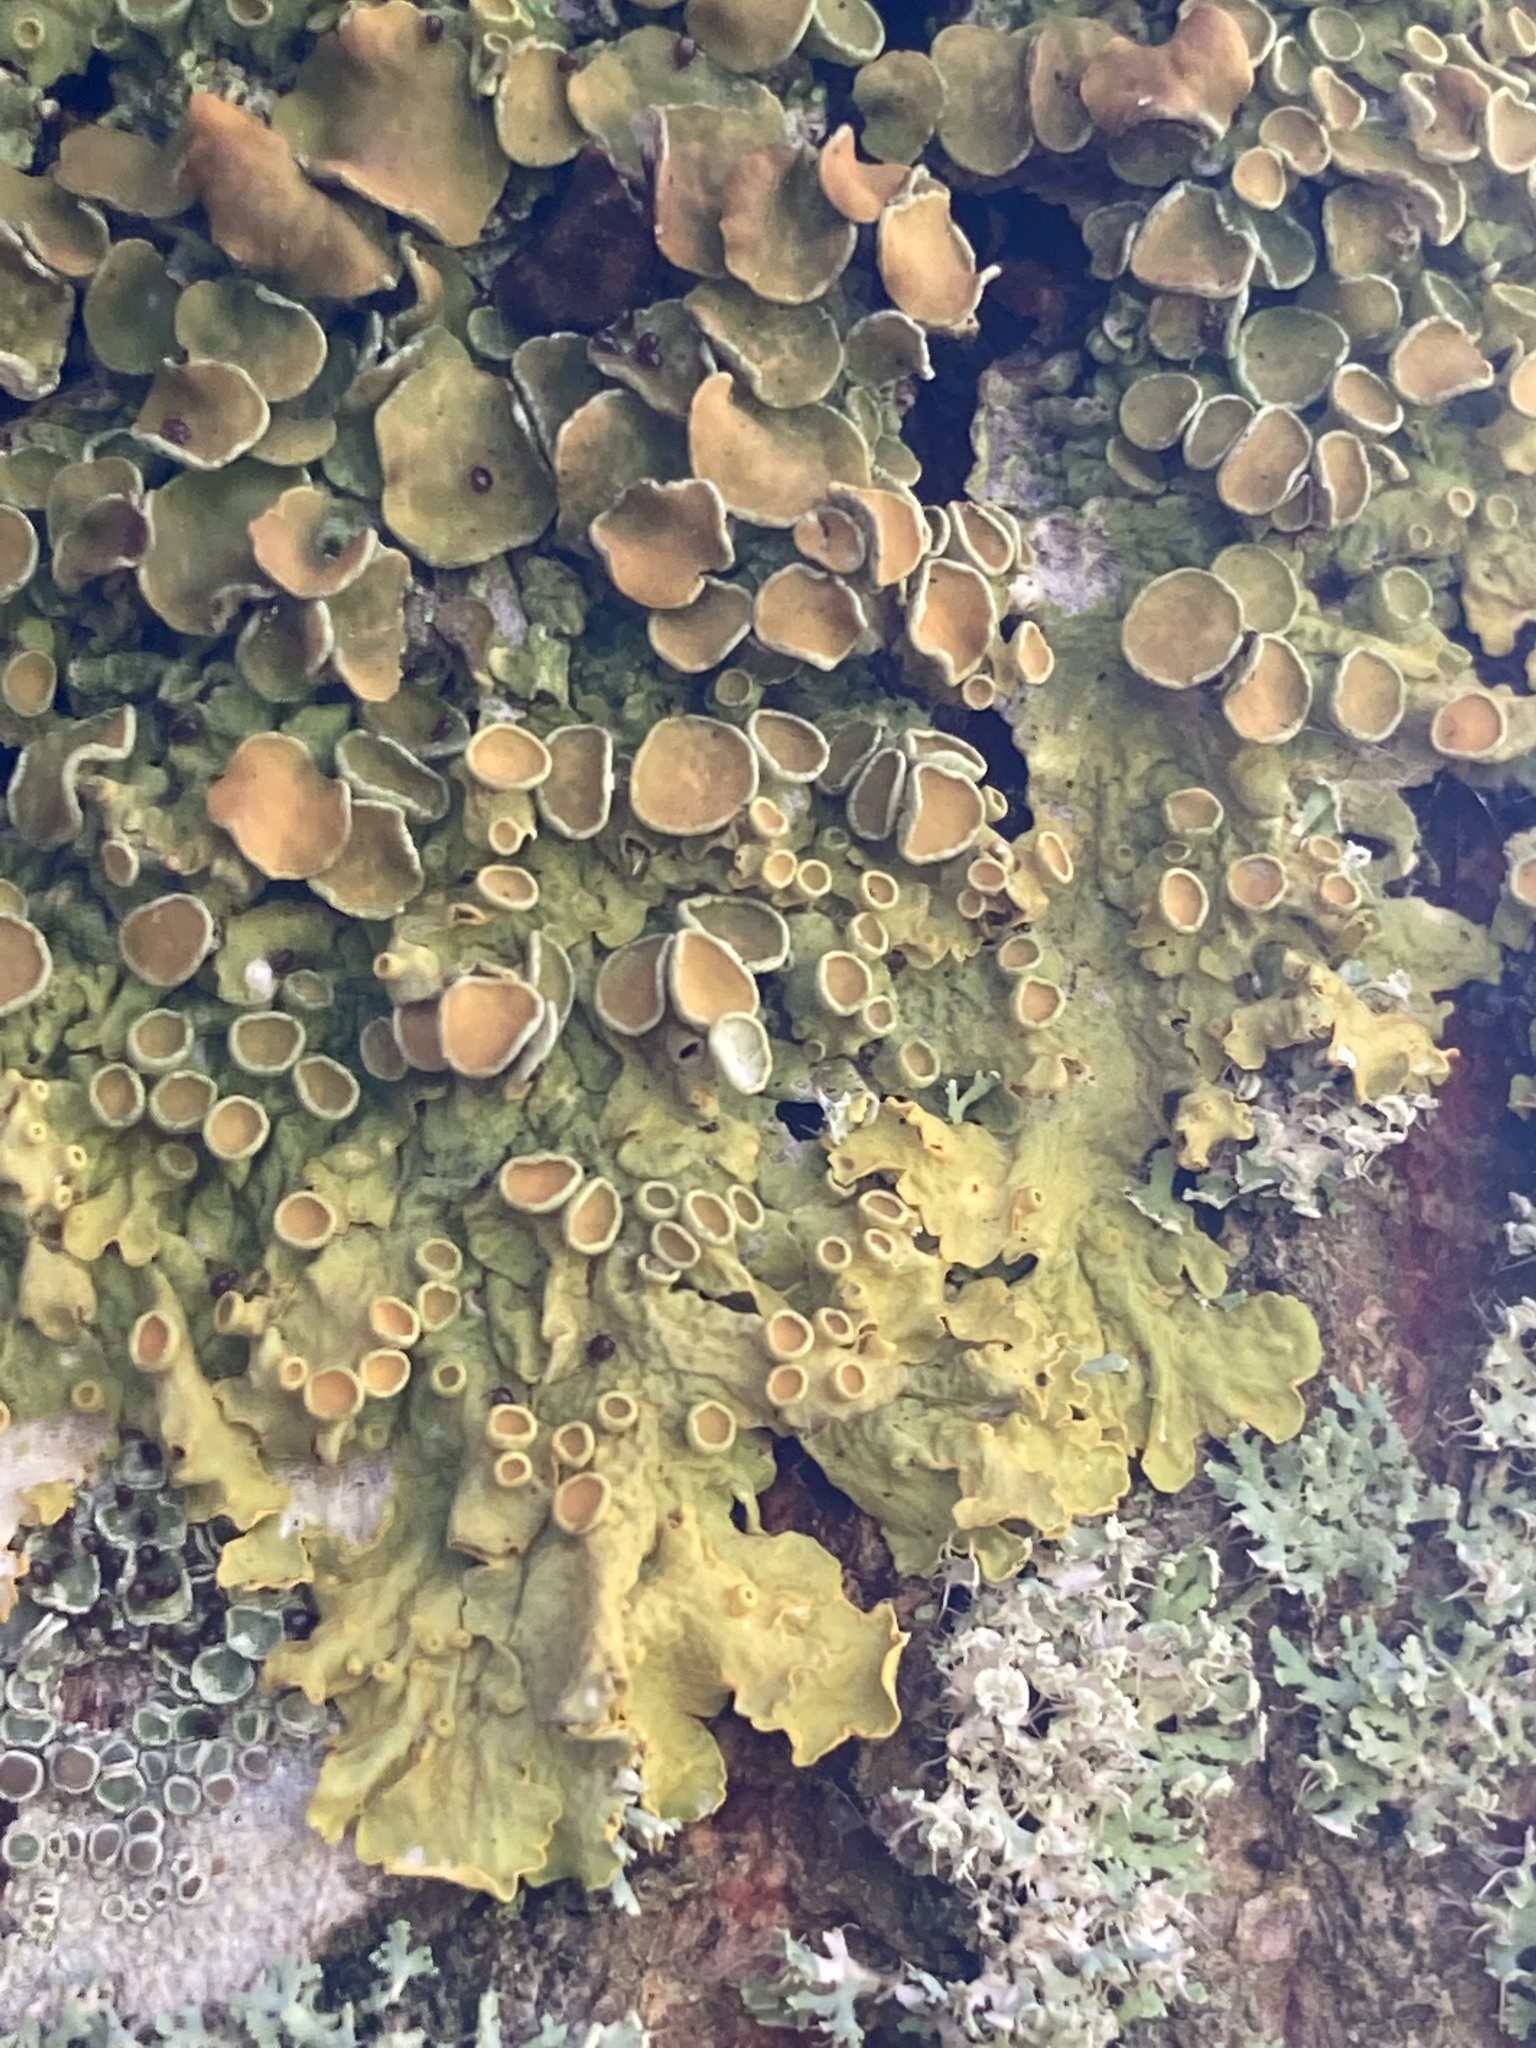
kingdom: Fungi
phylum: Ascomycota
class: Lecanoromycetes
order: Teloschistales
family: Teloschistaceae
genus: Xanthoria
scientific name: Xanthoria parietina
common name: Common orange lichen
